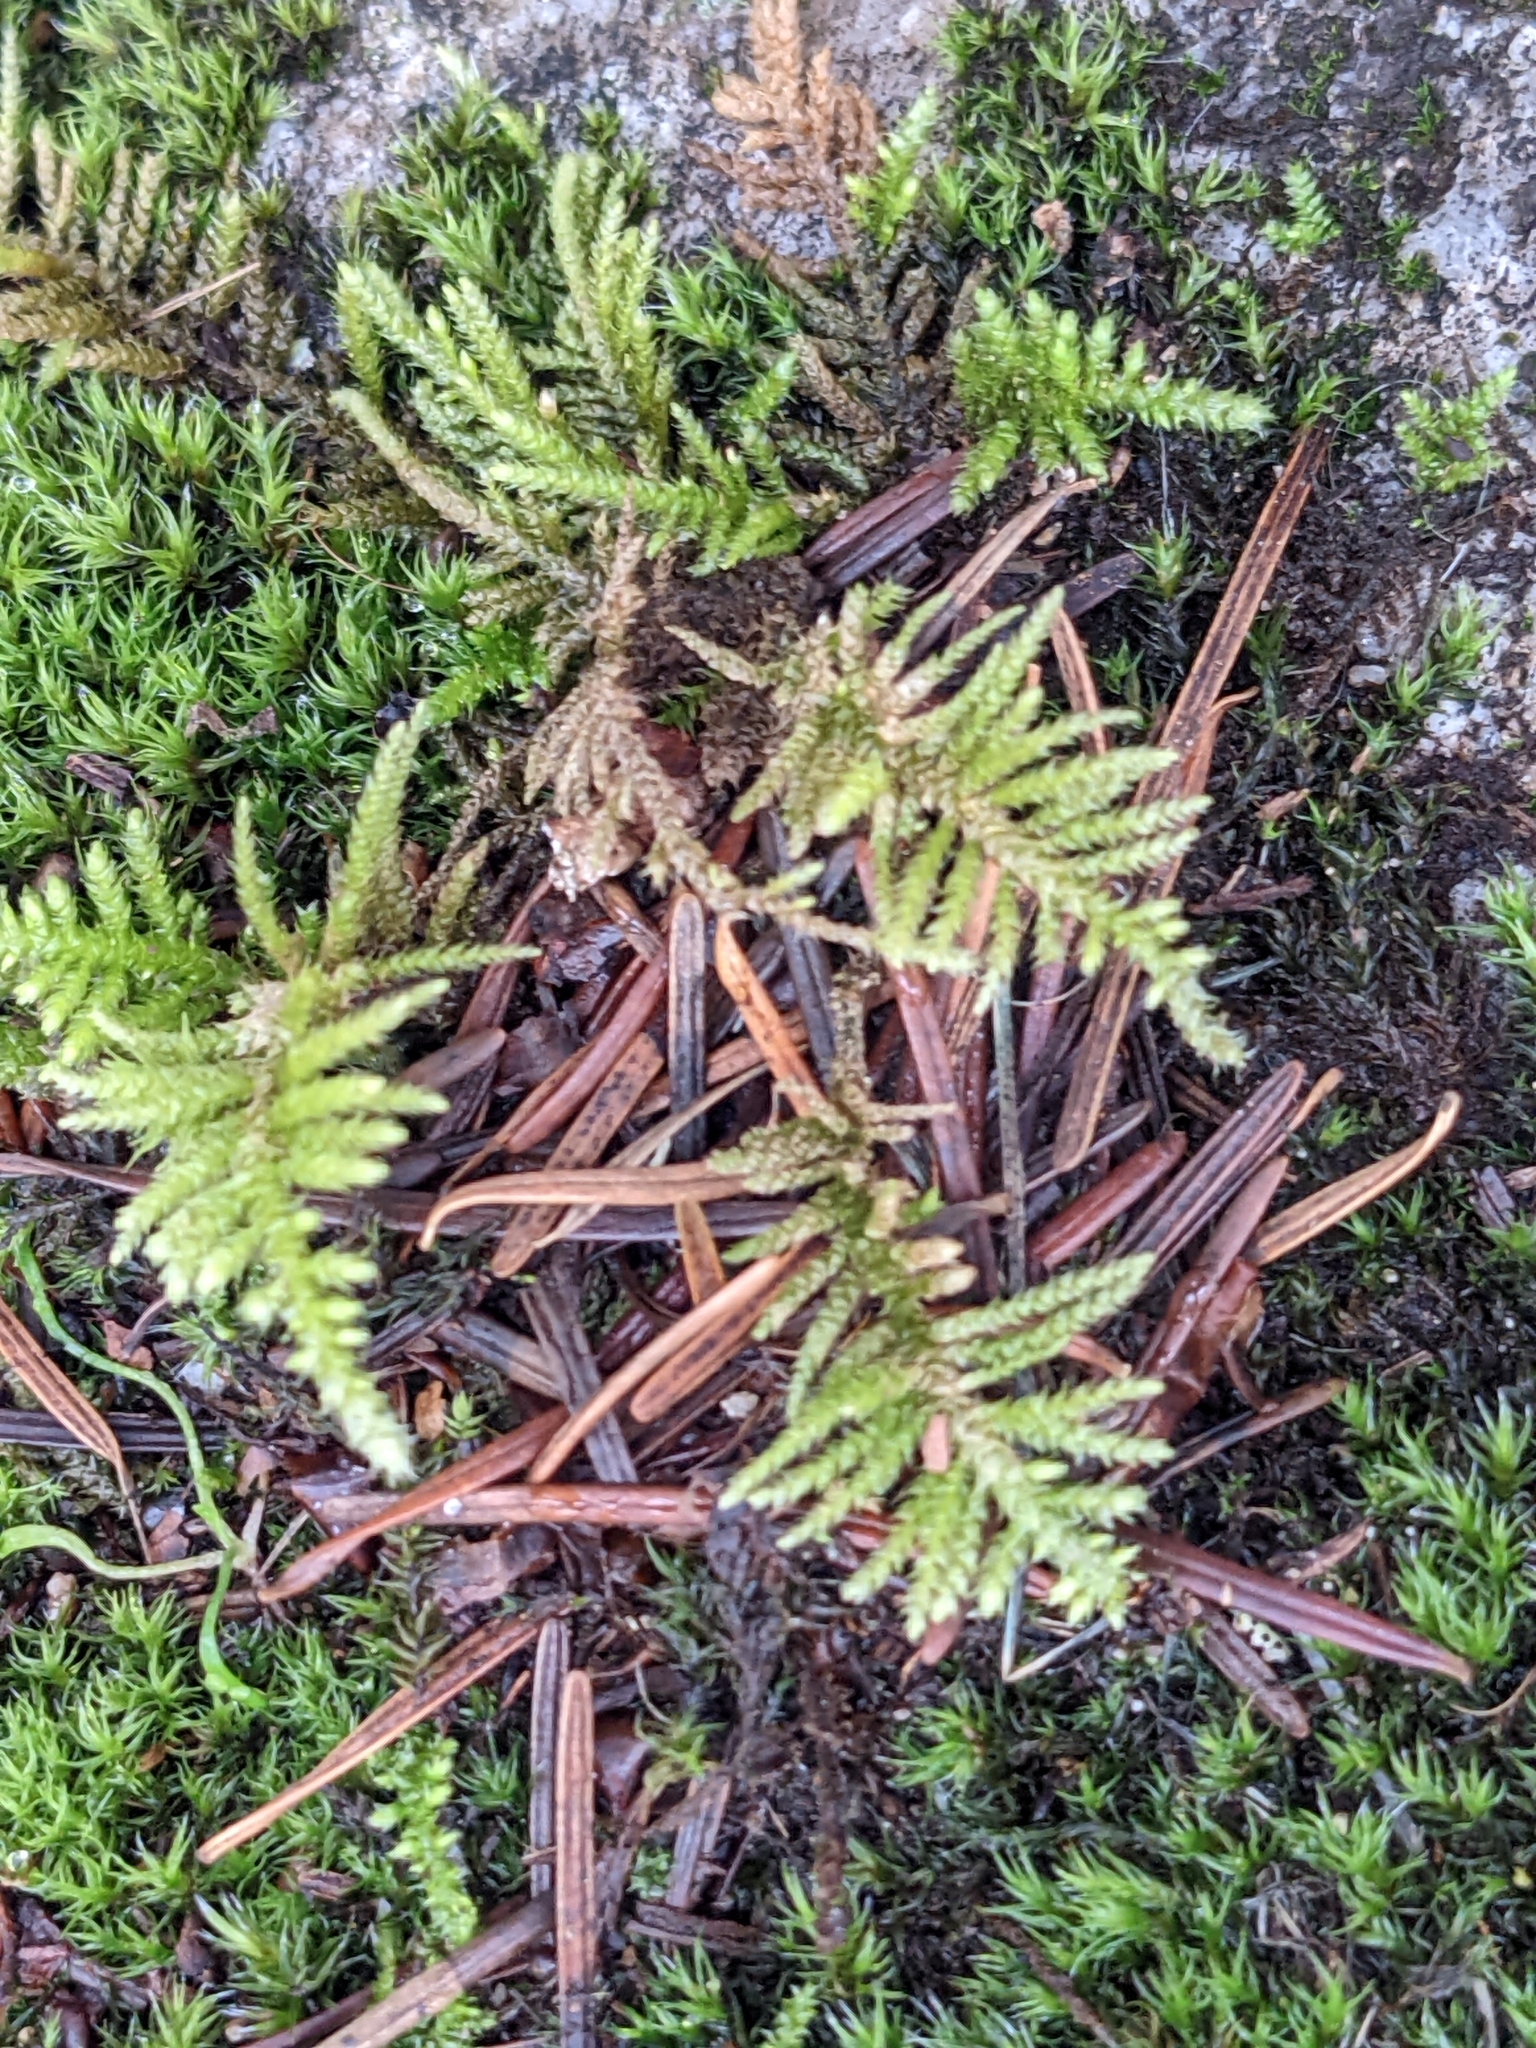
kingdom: Plantae
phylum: Bryophyta
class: Bryopsida
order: Hypnales
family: Brachytheciaceae
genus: Kindbergia
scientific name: Kindbergia oregana
